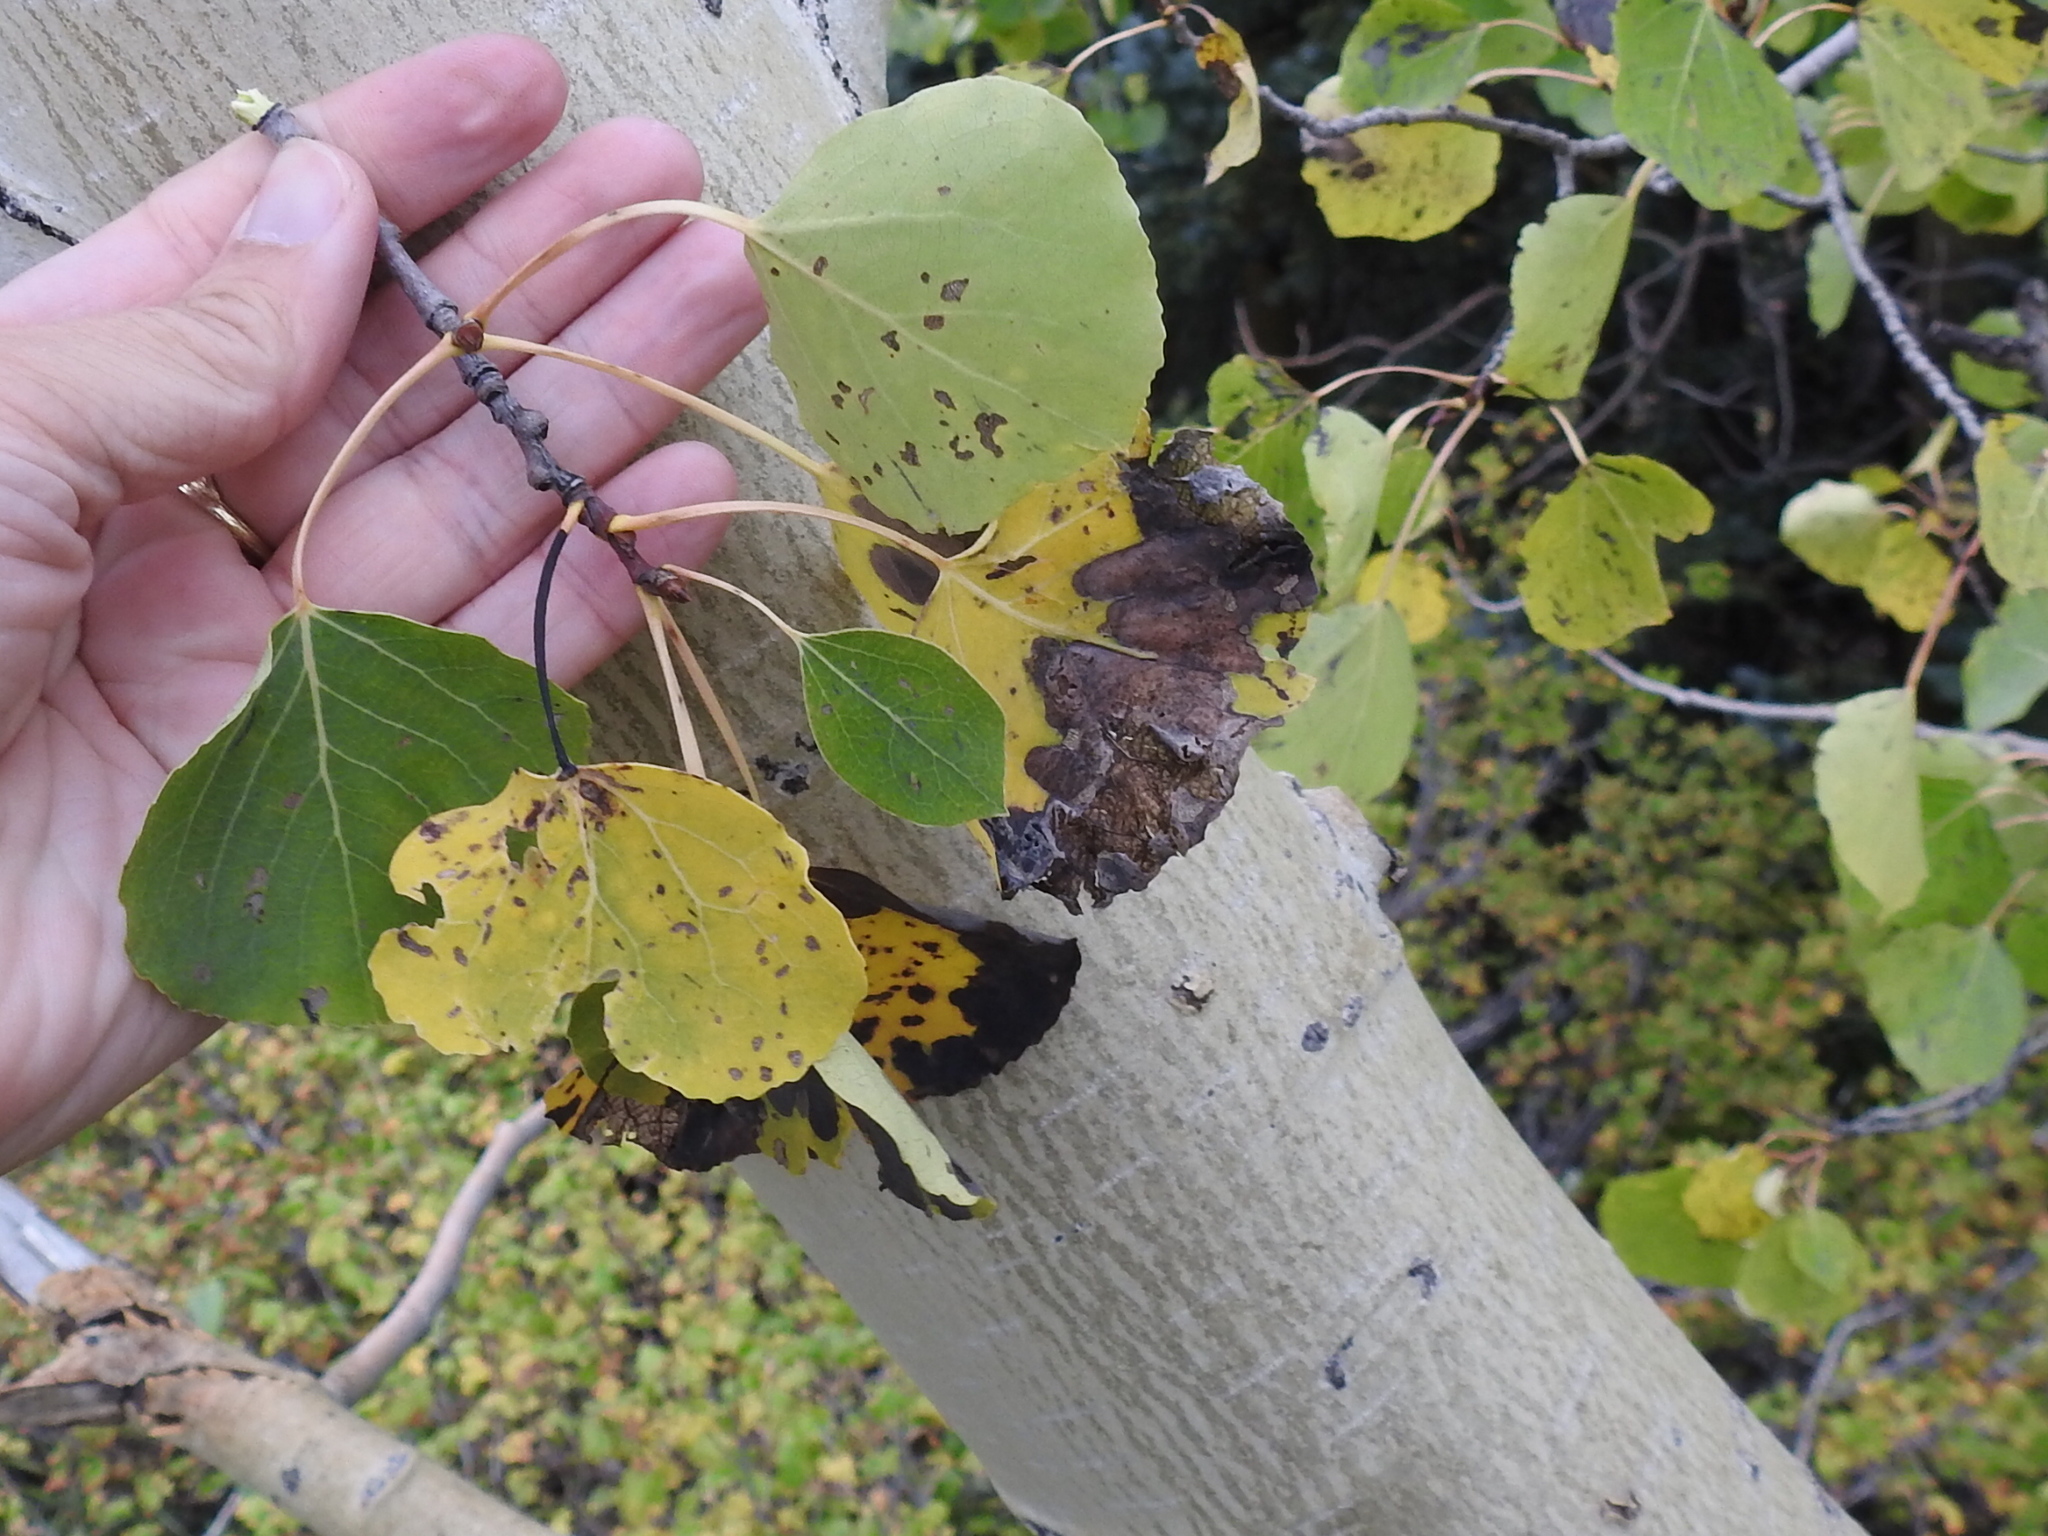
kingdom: Plantae
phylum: Tracheophyta
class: Magnoliopsida
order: Malpighiales
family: Salicaceae
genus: Populus
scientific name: Populus tremuloides
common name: Quaking aspen
